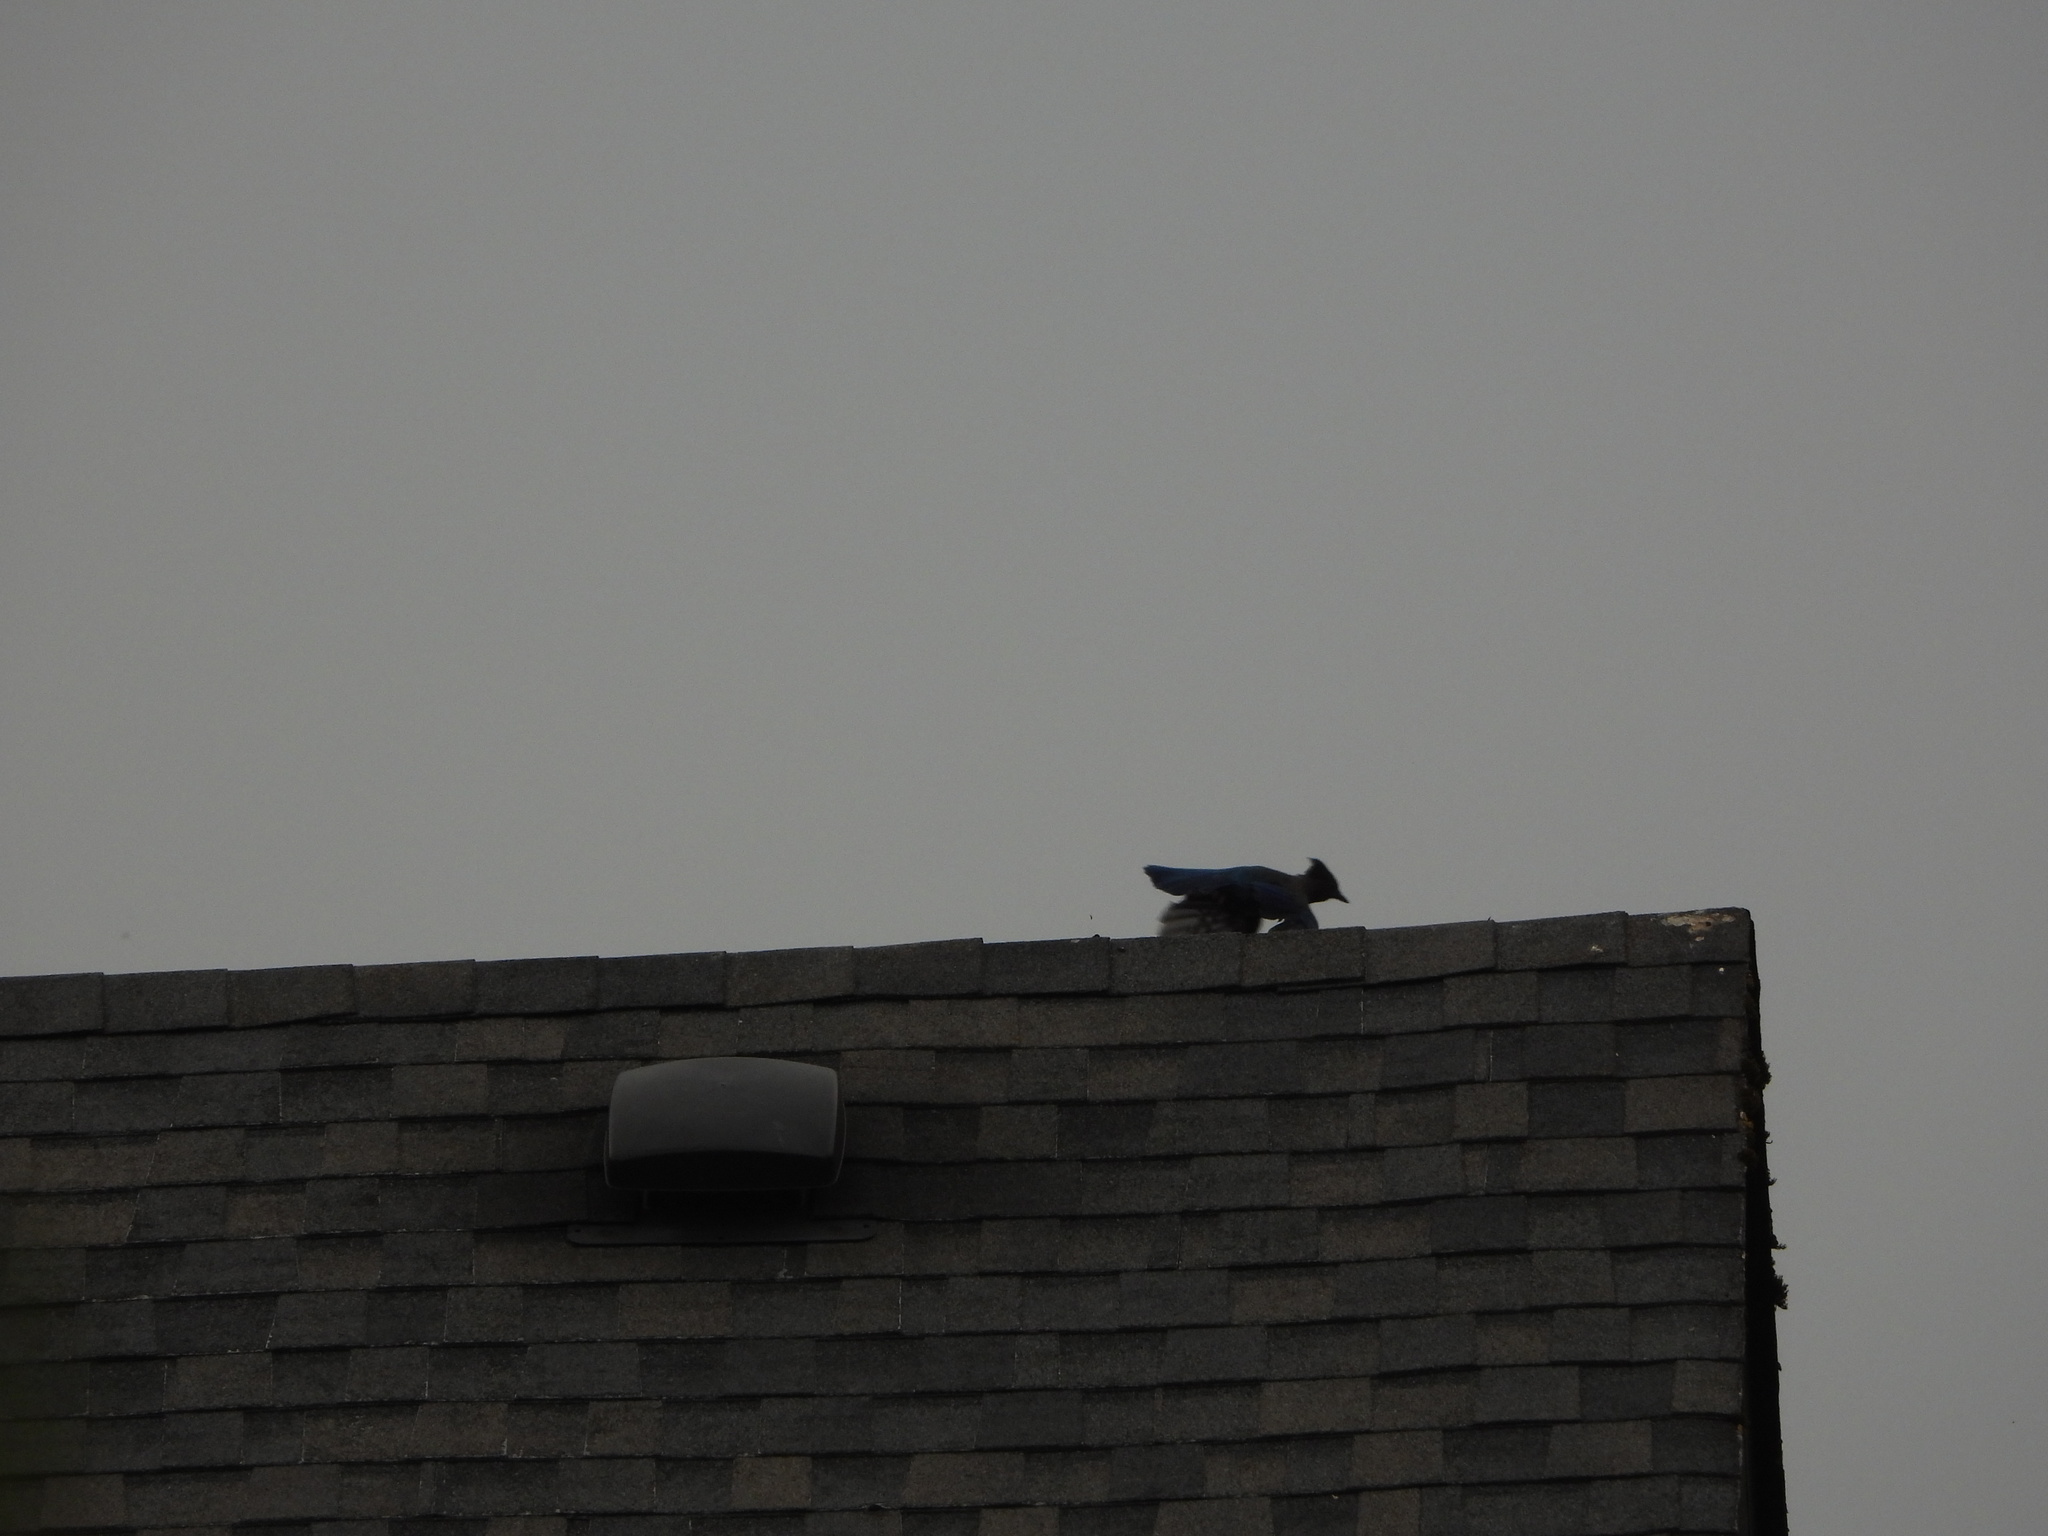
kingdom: Animalia
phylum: Chordata
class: Aves
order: Passeriformes
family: Corvidae
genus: Cyanocitta
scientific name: Cyanocitta stelleri
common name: Steller's jay
